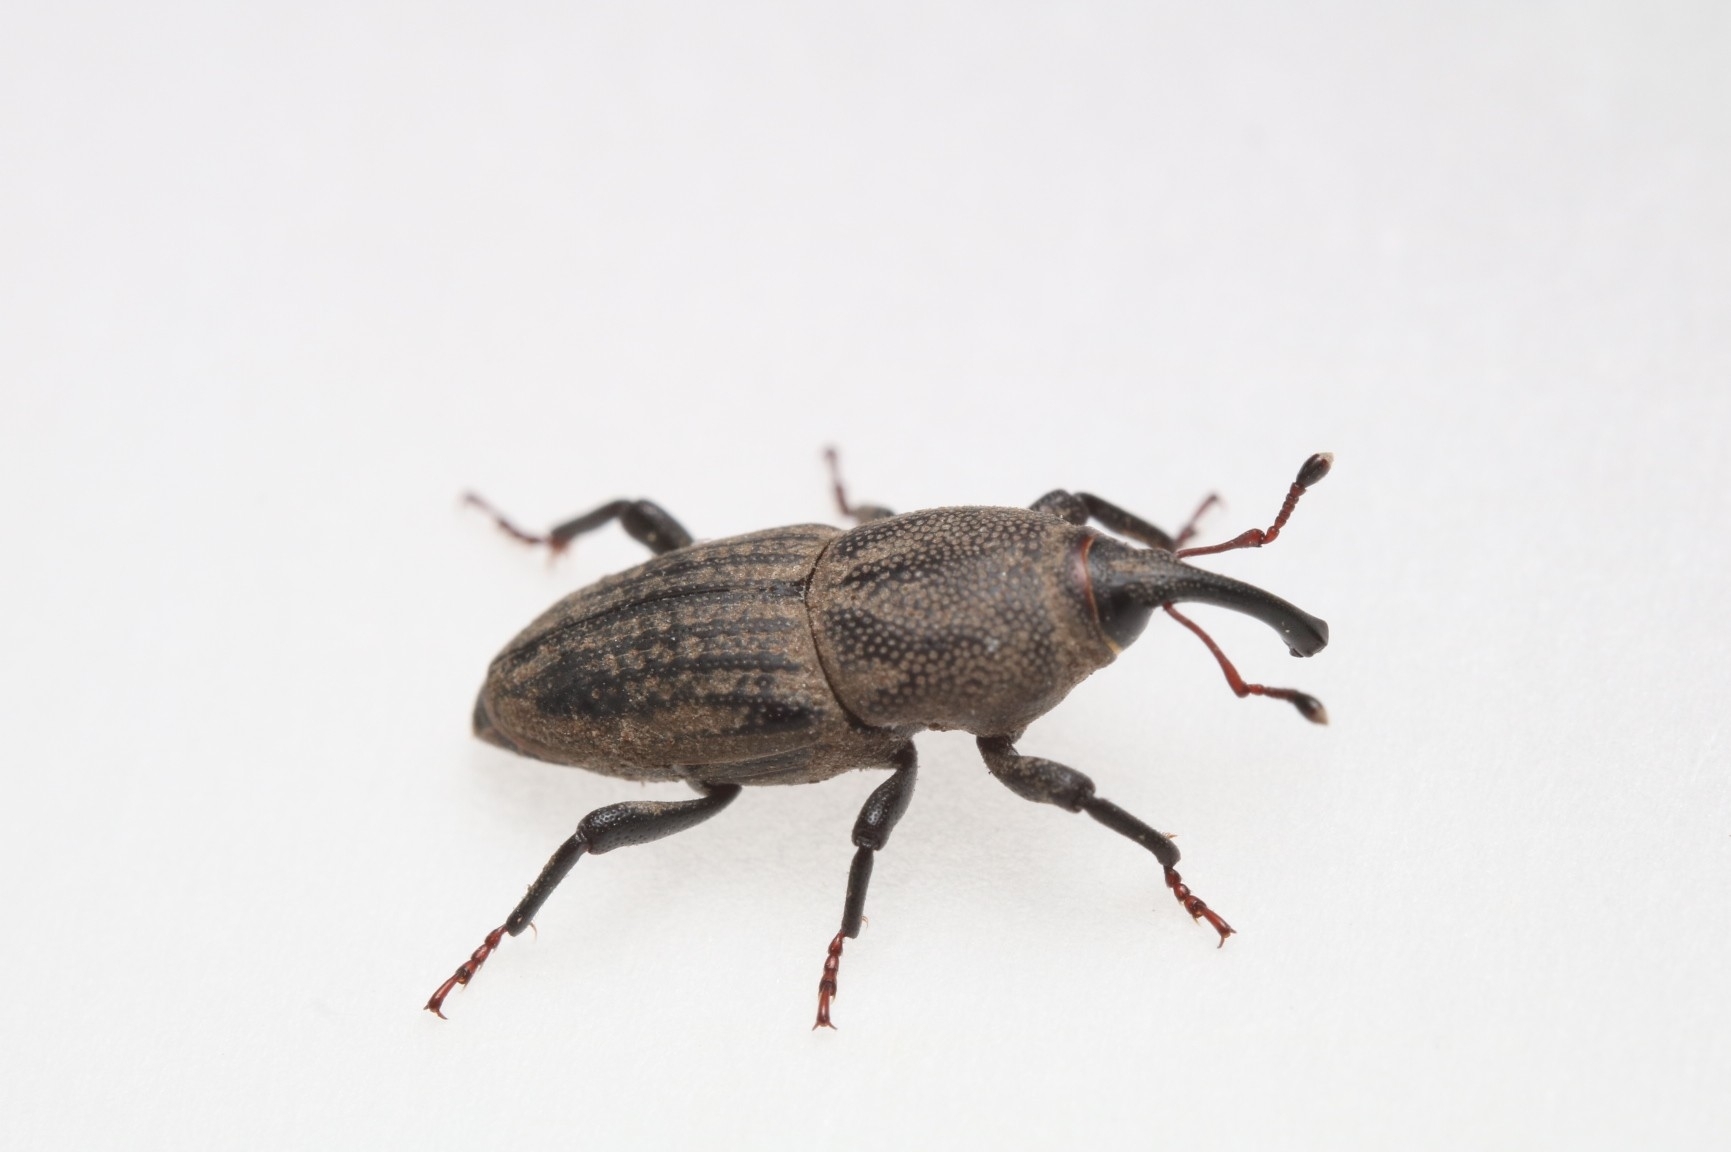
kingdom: Animalia
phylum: Arthropoda
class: Insecta
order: Coleoptera
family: Dryophthoridae
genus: Sphenophorus
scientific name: Sphenophorus interstitialis
